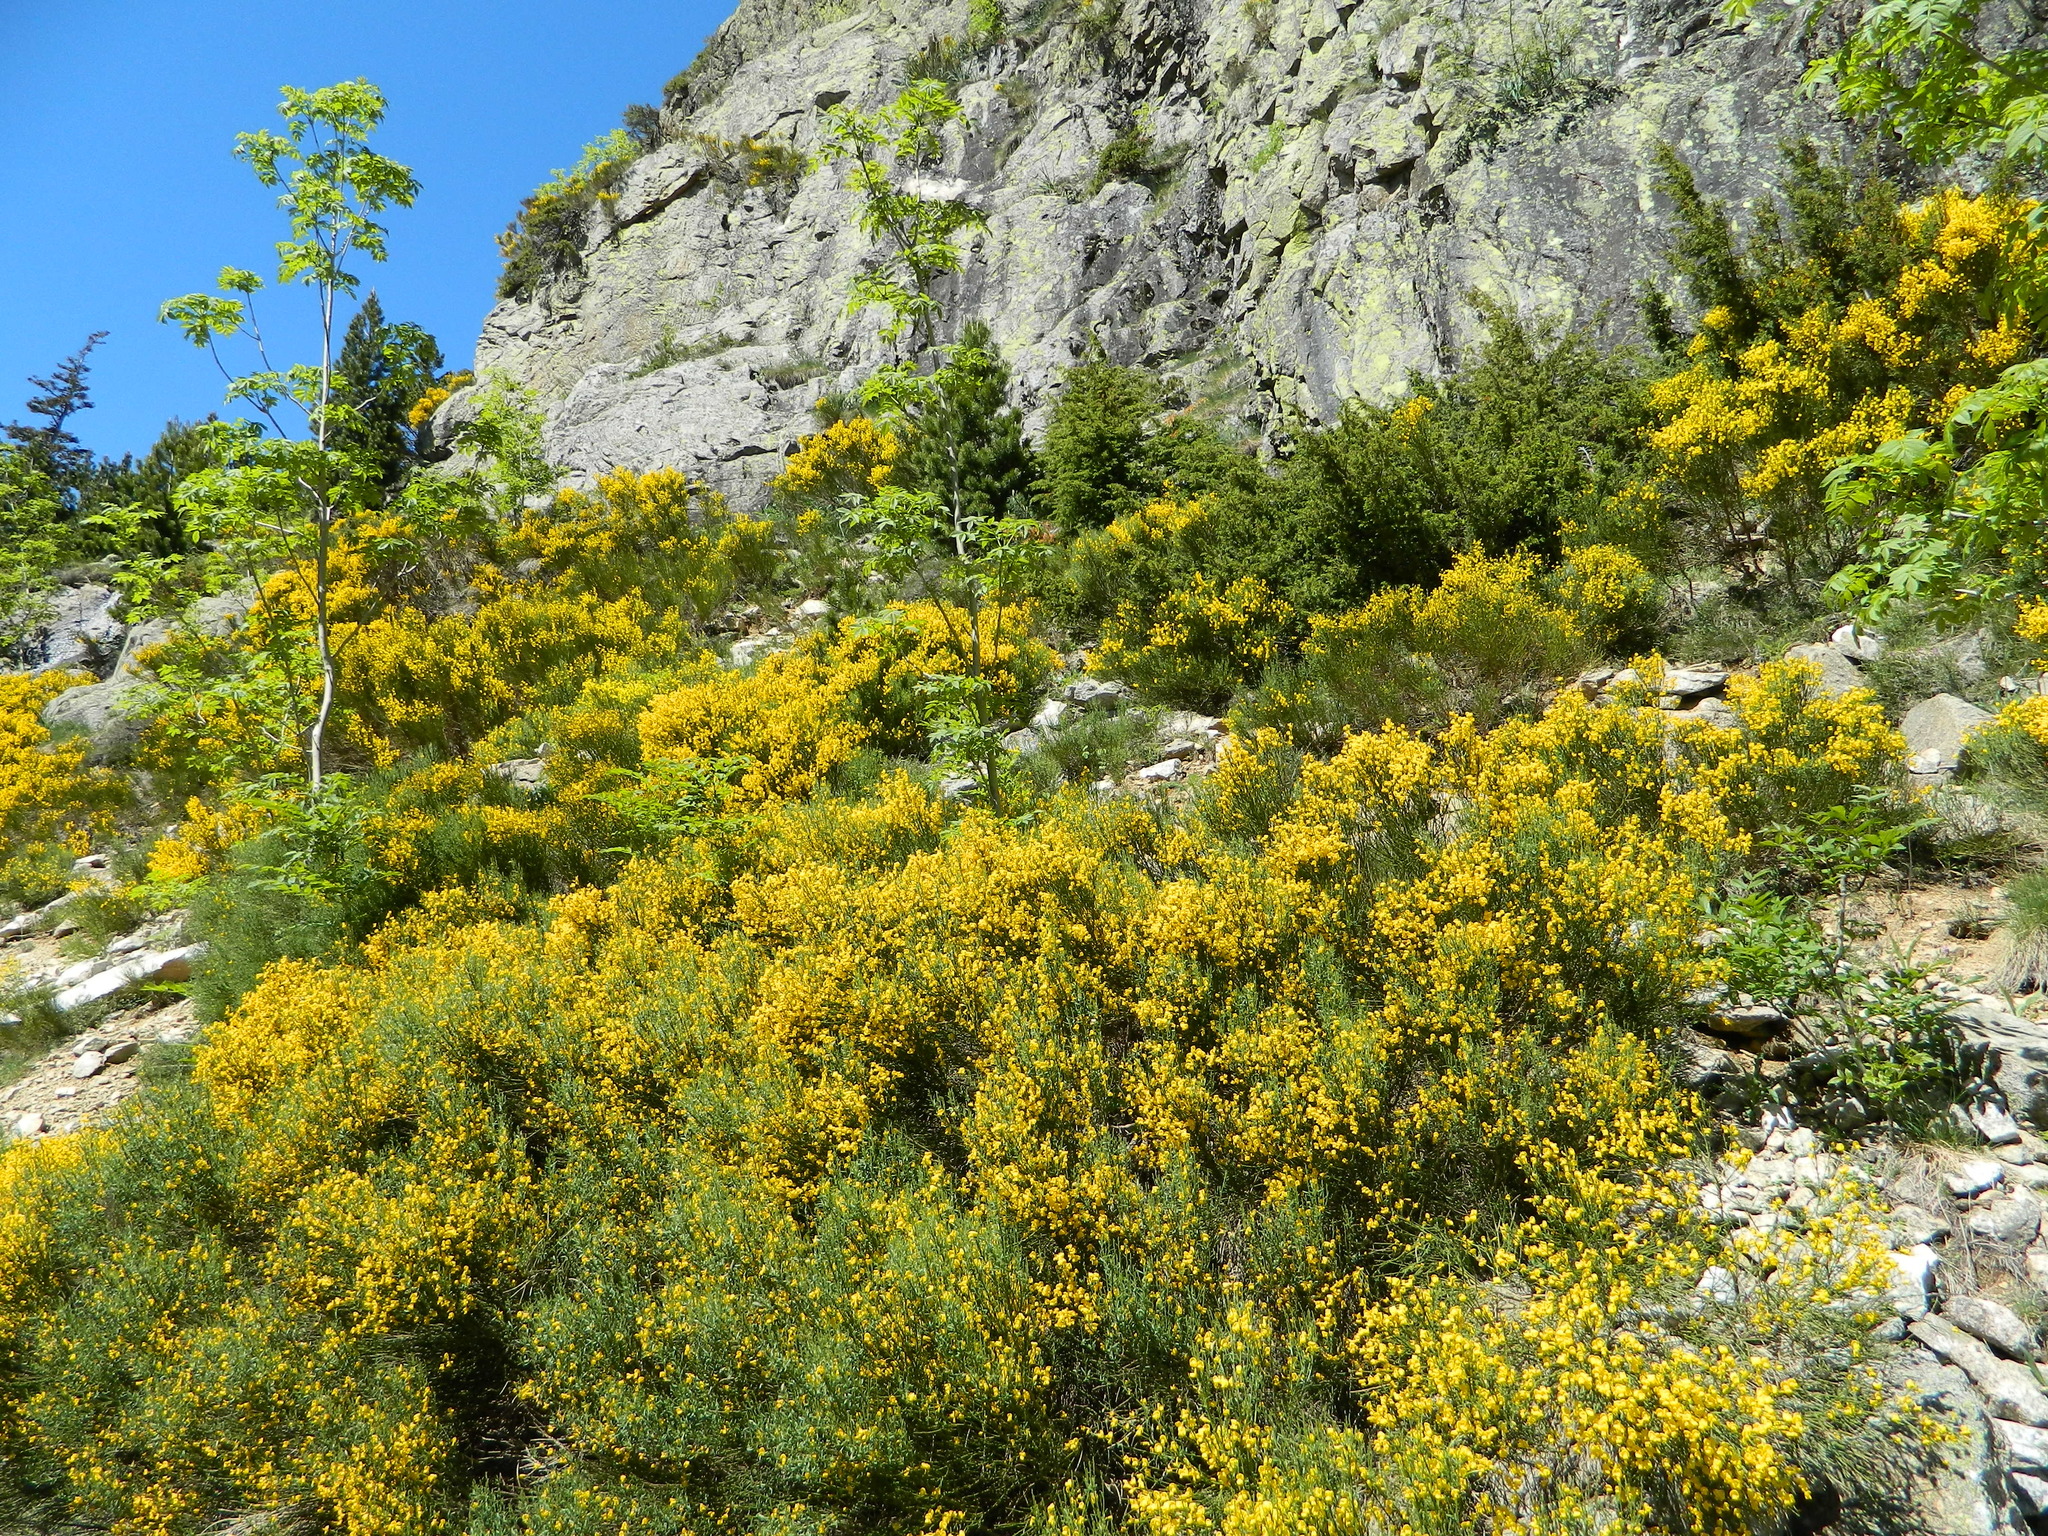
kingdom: Plantae
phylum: Tracheophyta
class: Magnoliopsida
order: Fabales
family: Fabaceae
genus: Cytisus
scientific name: Cytisus oromediterraneus
